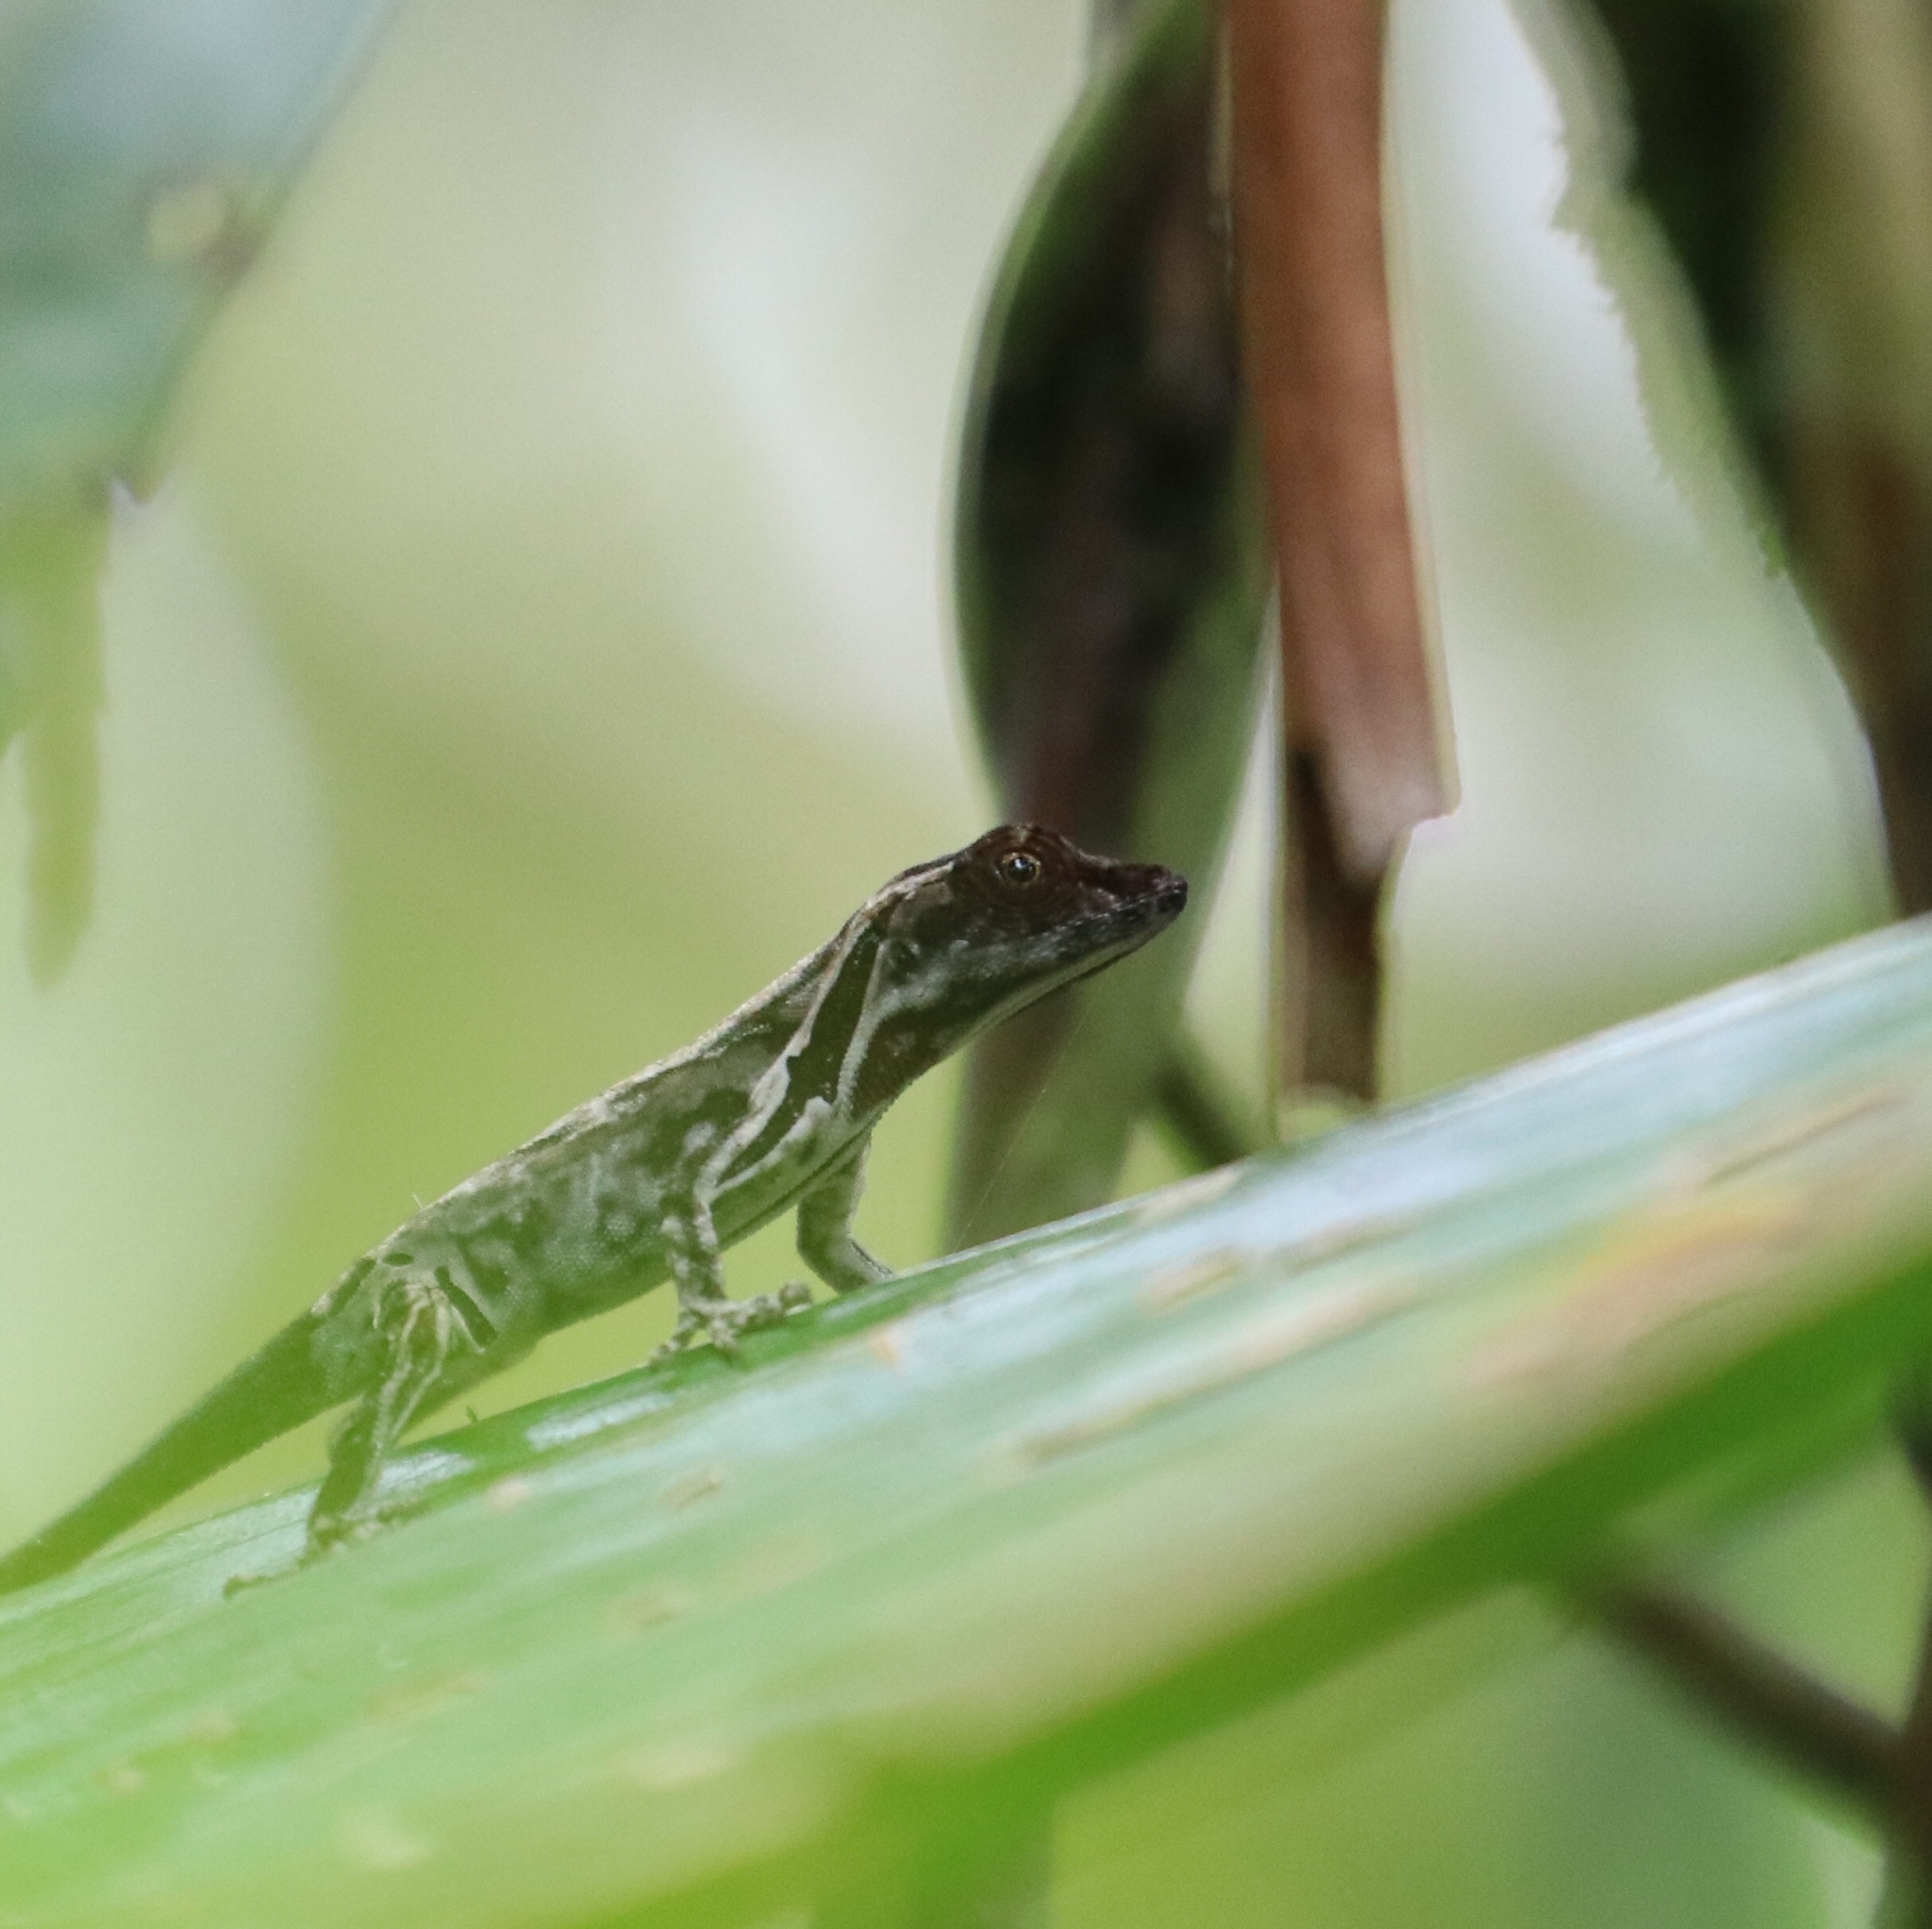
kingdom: Animalia
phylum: Chordata
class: Squamata
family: Dactyloidae
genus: Anolis
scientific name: Anolis humilis
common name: Humble anole
